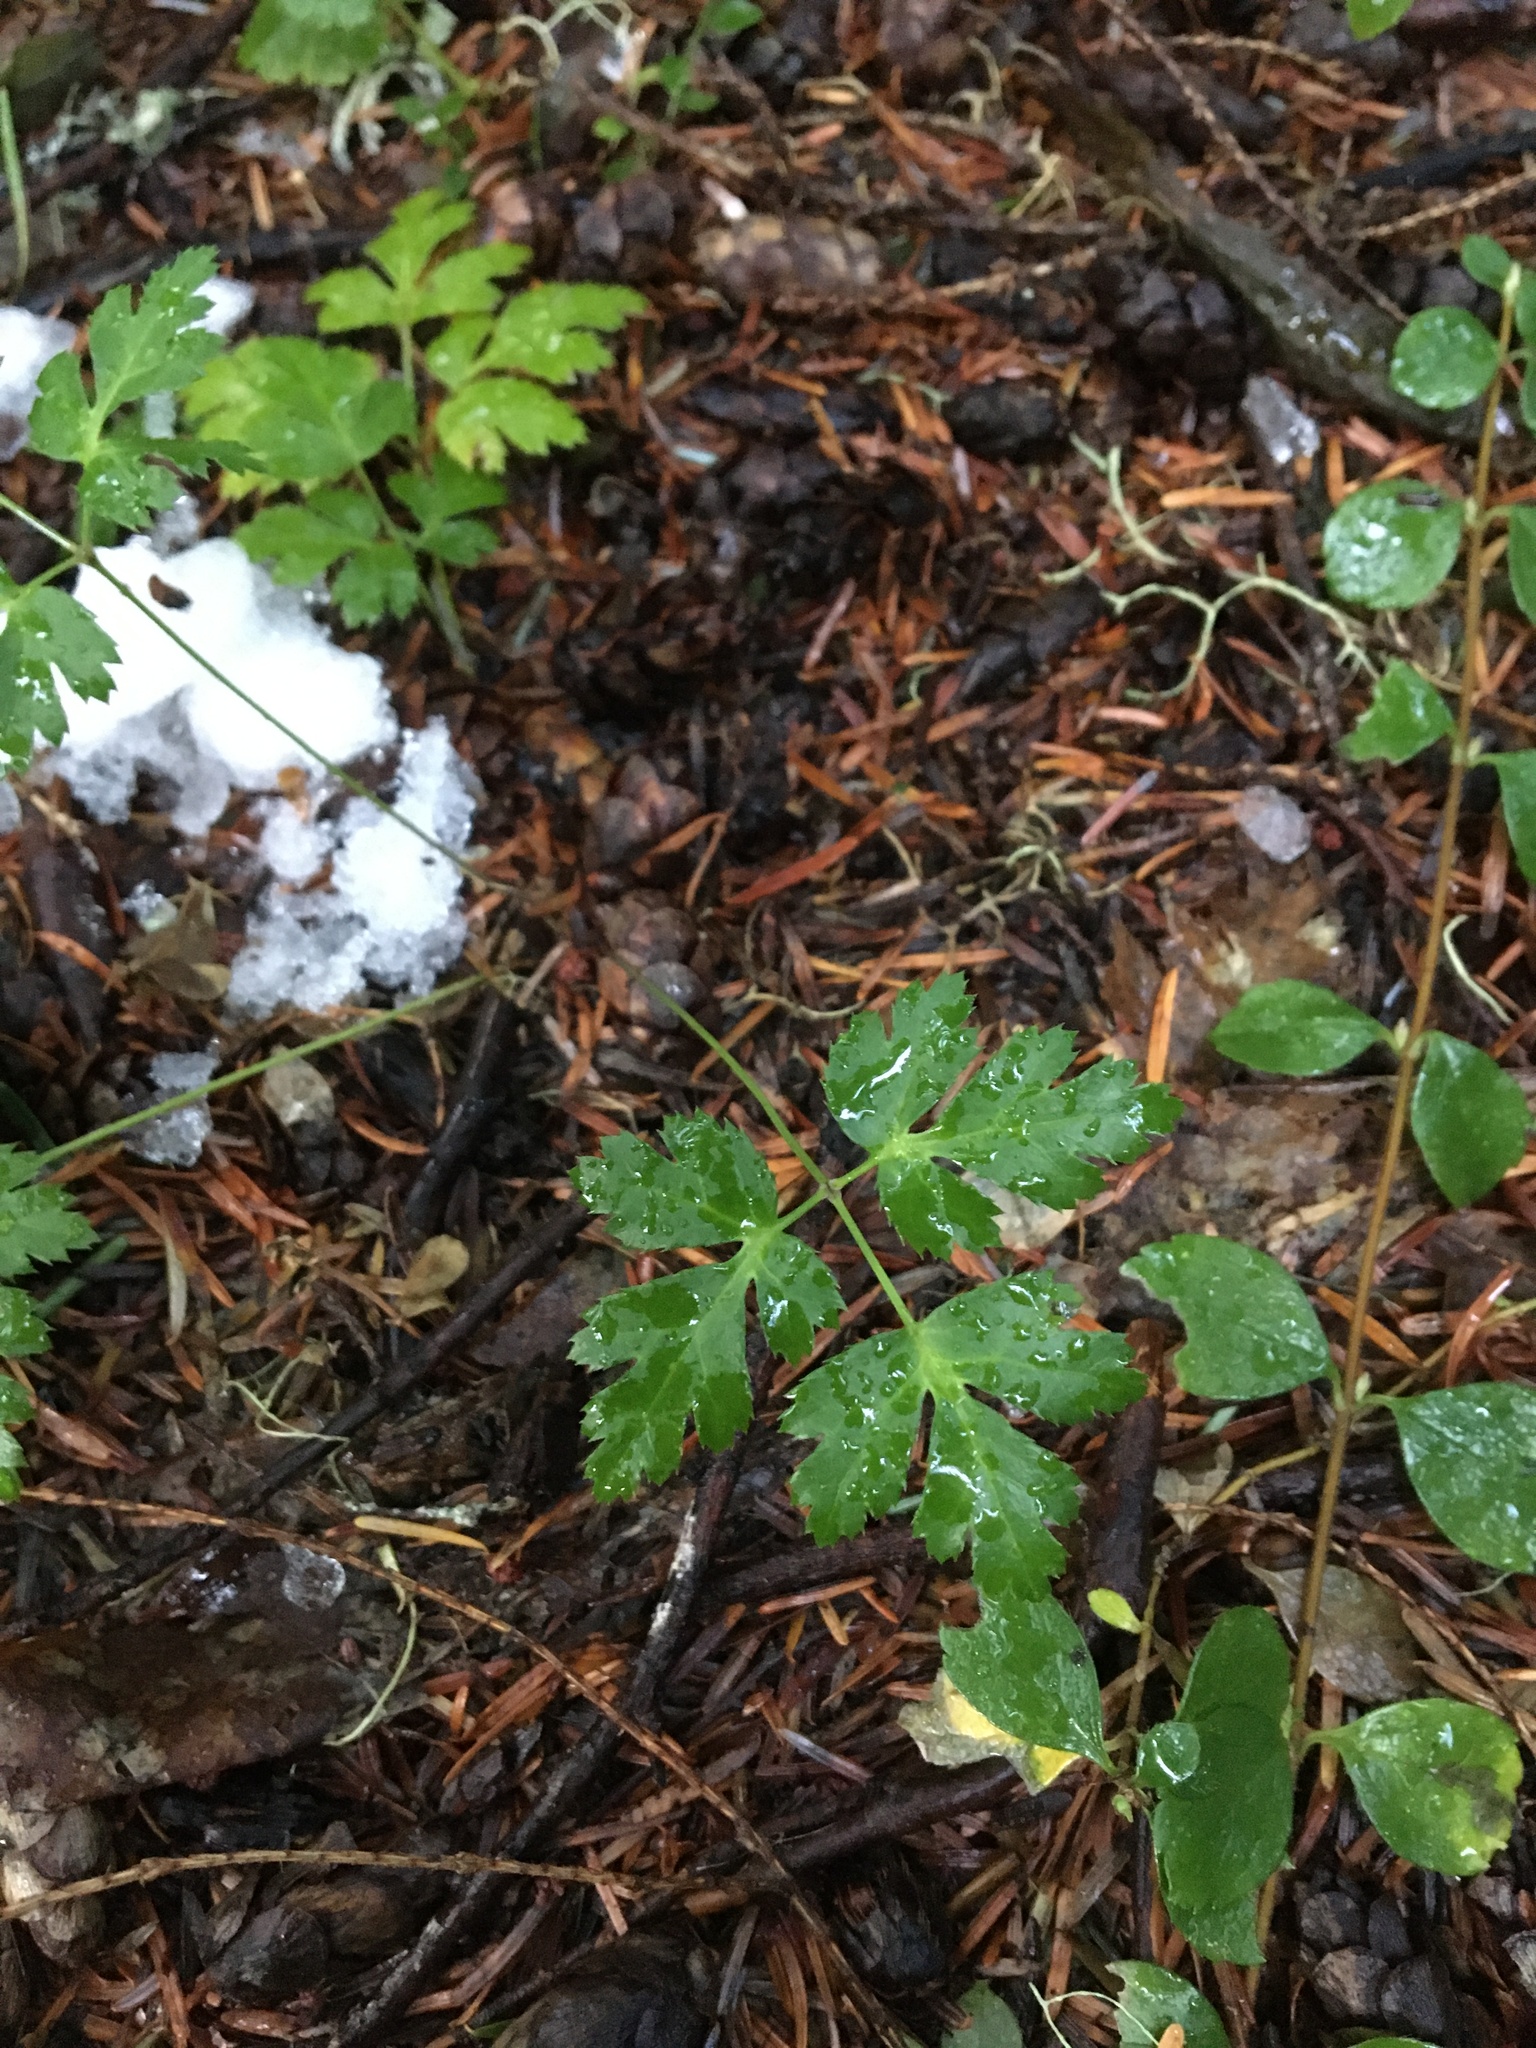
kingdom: Plantae
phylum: Tracheophyta
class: Magnoliopsida
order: Ranunculales
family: Ranunculaceae
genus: Coptis
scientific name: Coptis laciniata
